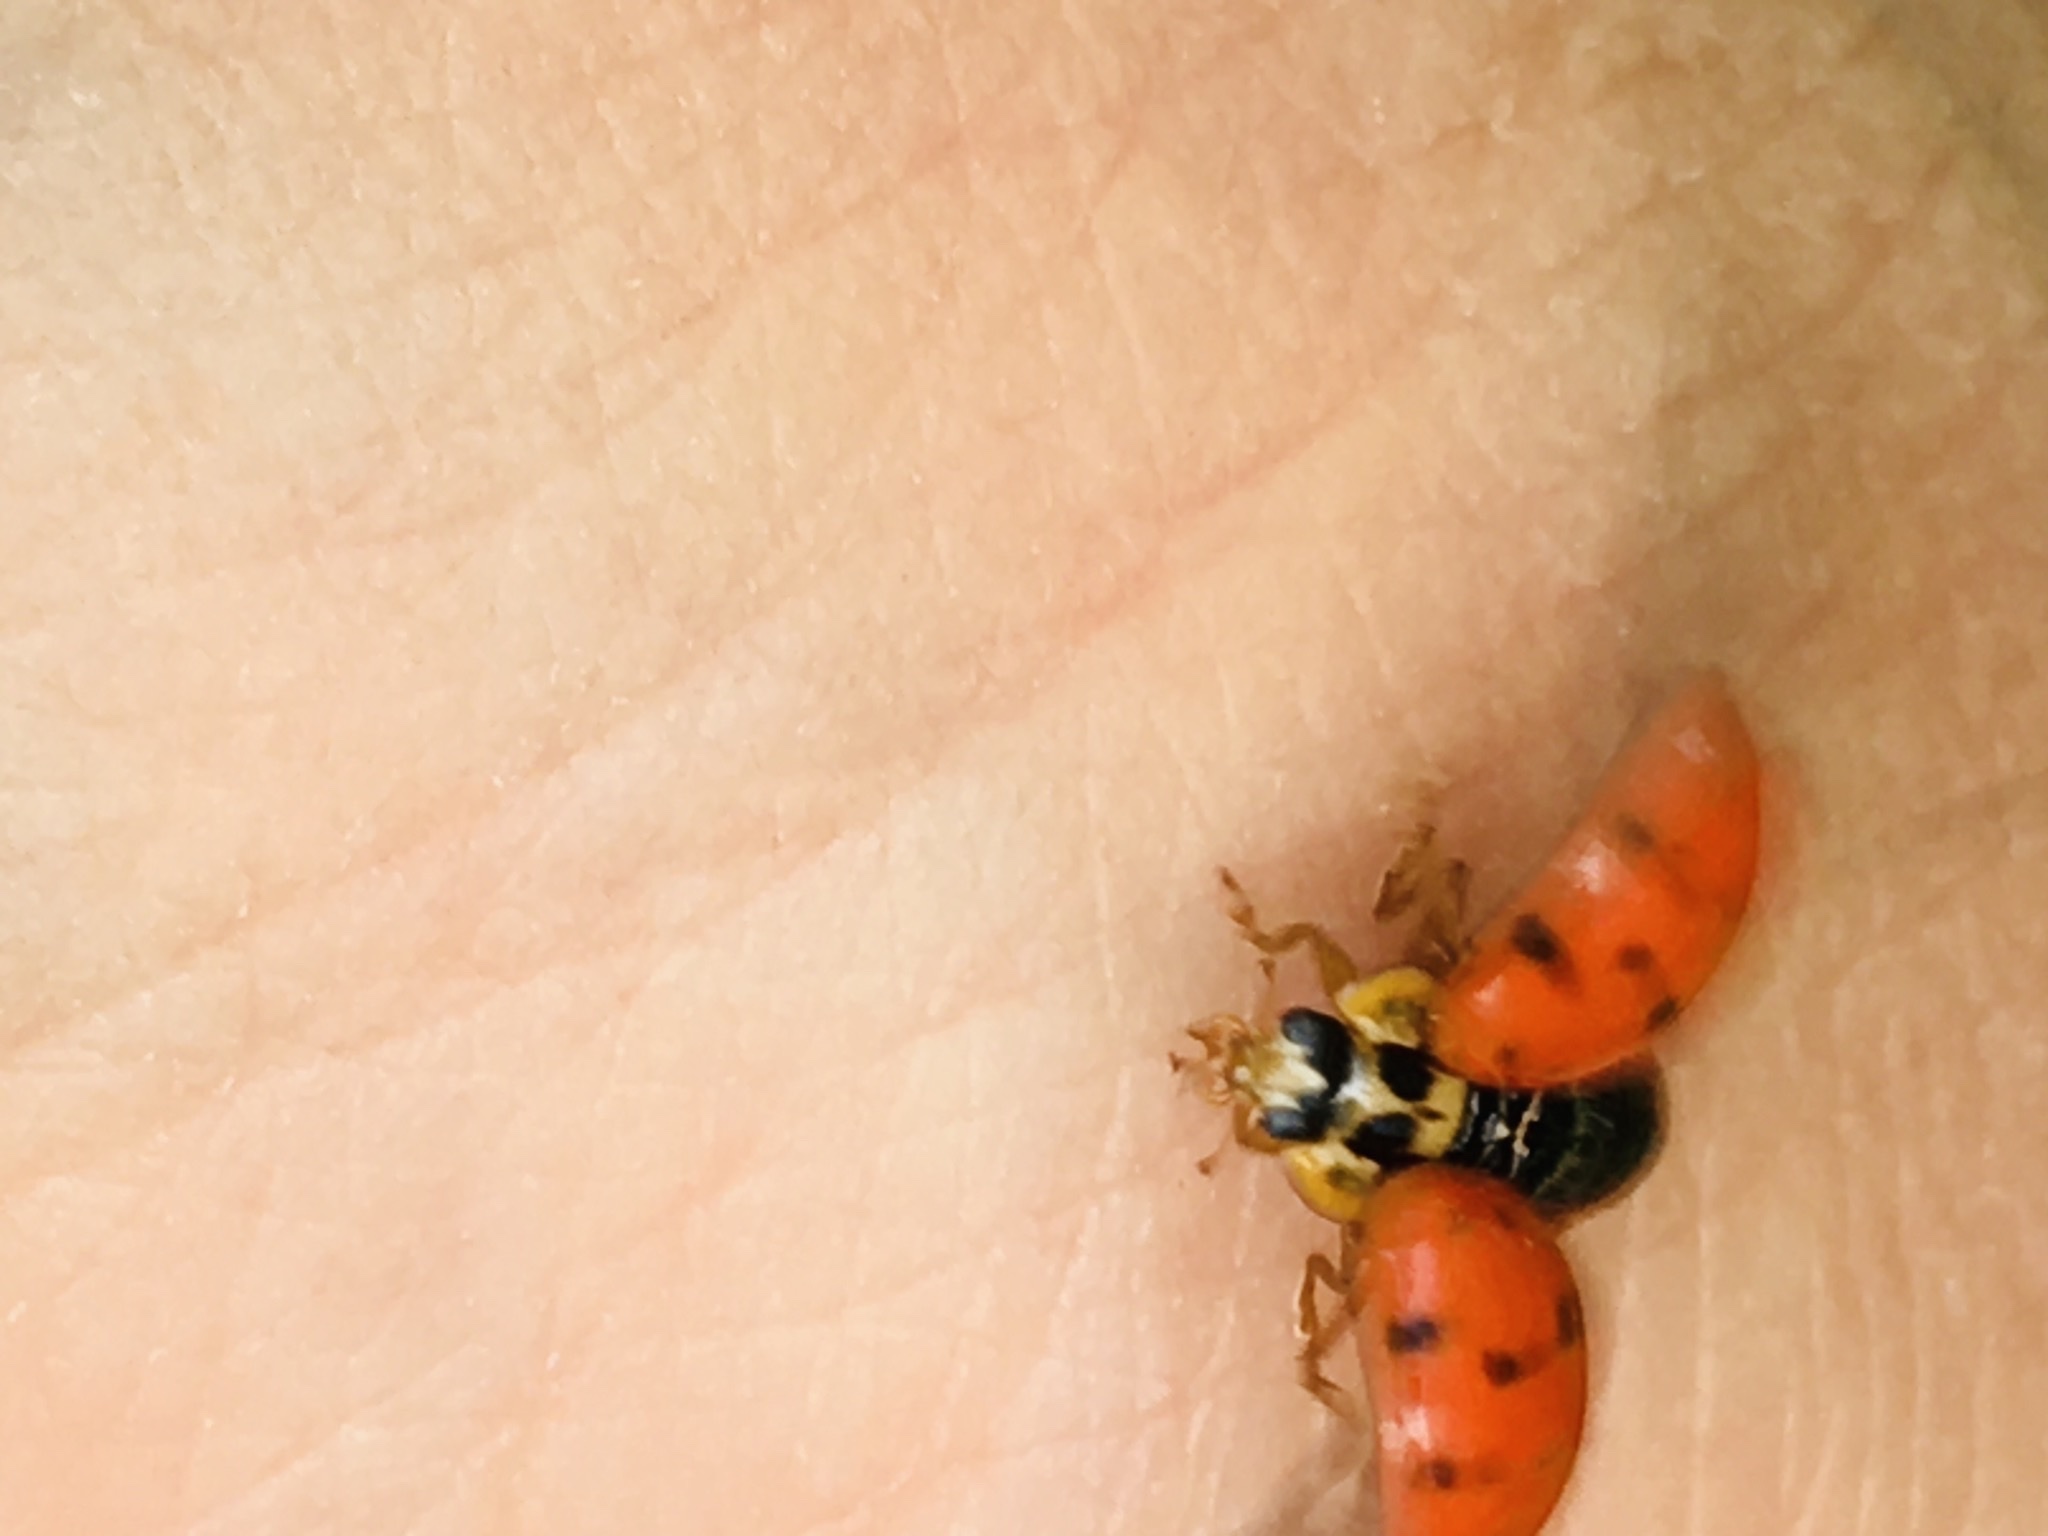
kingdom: Animalia
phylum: Arthropoda
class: Insecta
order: Coleoptera
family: Coccinellidae
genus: Harmonia
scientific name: Harmonia axyridis
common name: Harlequin ladybird
